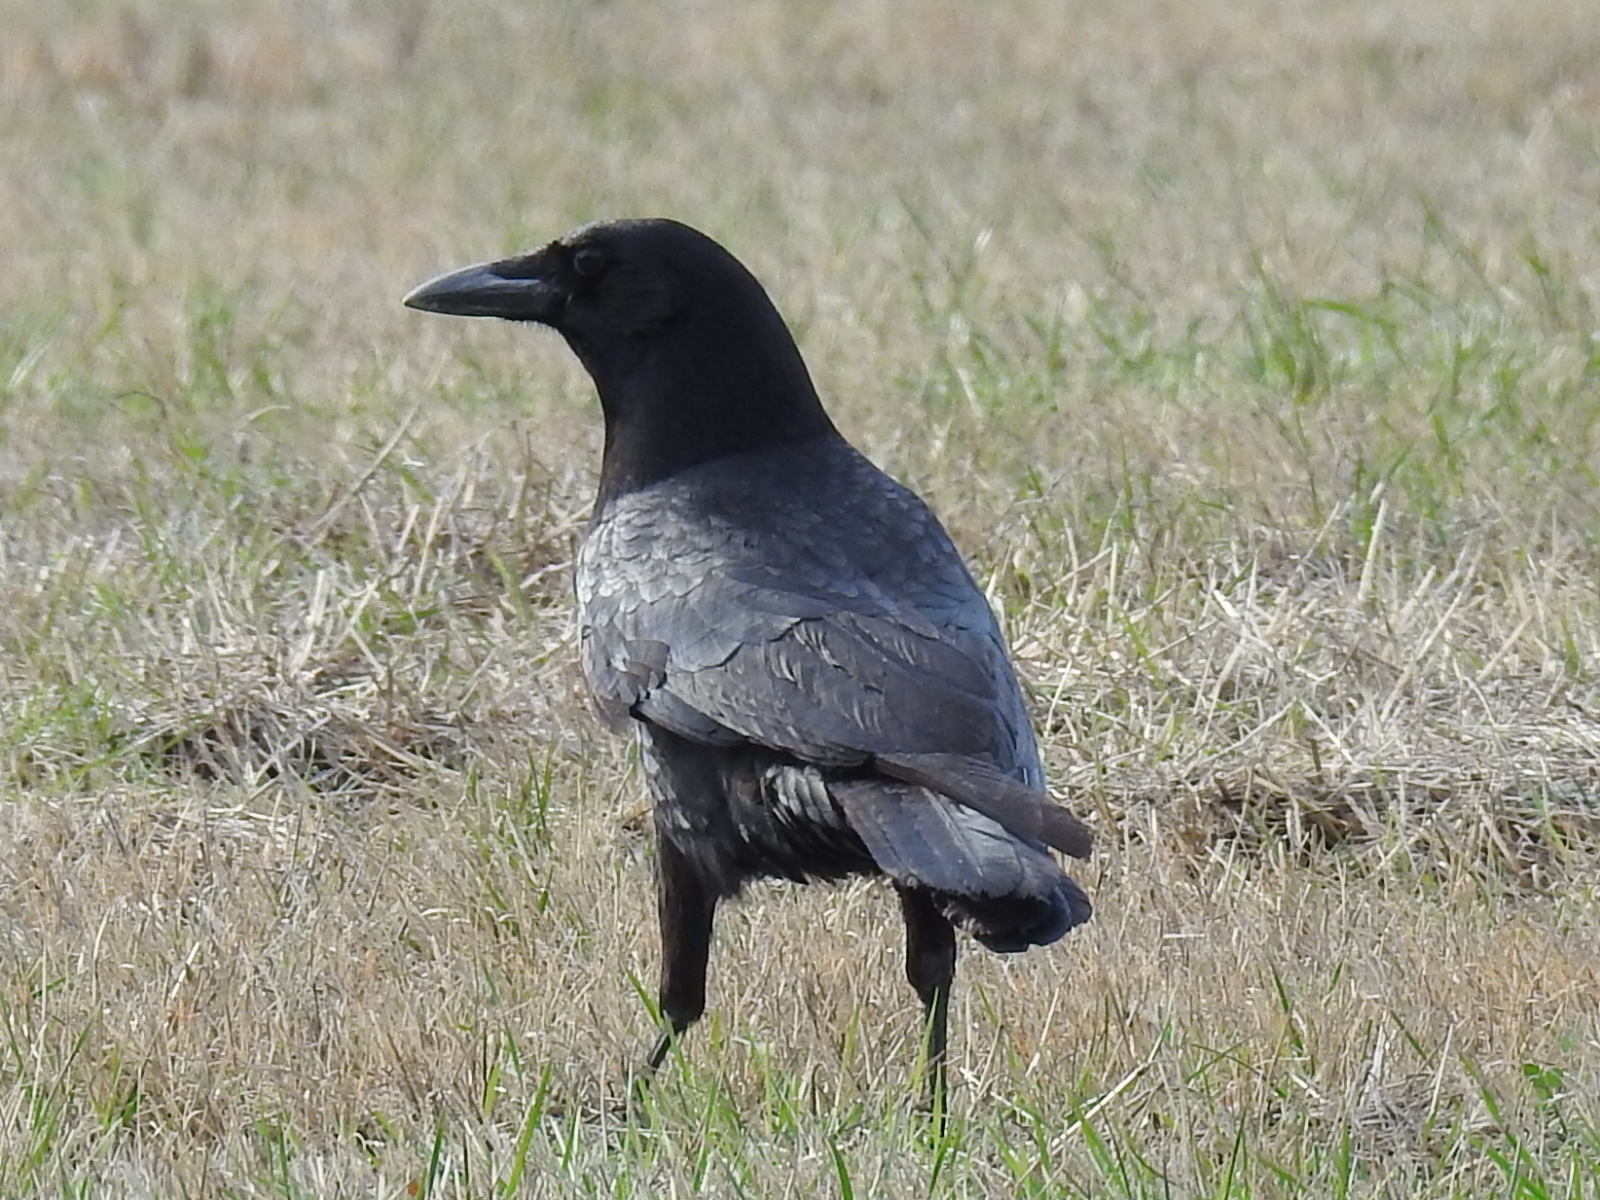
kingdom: Animalia
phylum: Chordata
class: Aves
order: Passeriformes
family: Corvidae
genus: Corvus
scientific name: Corvus brachyrhynchos
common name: American crow
